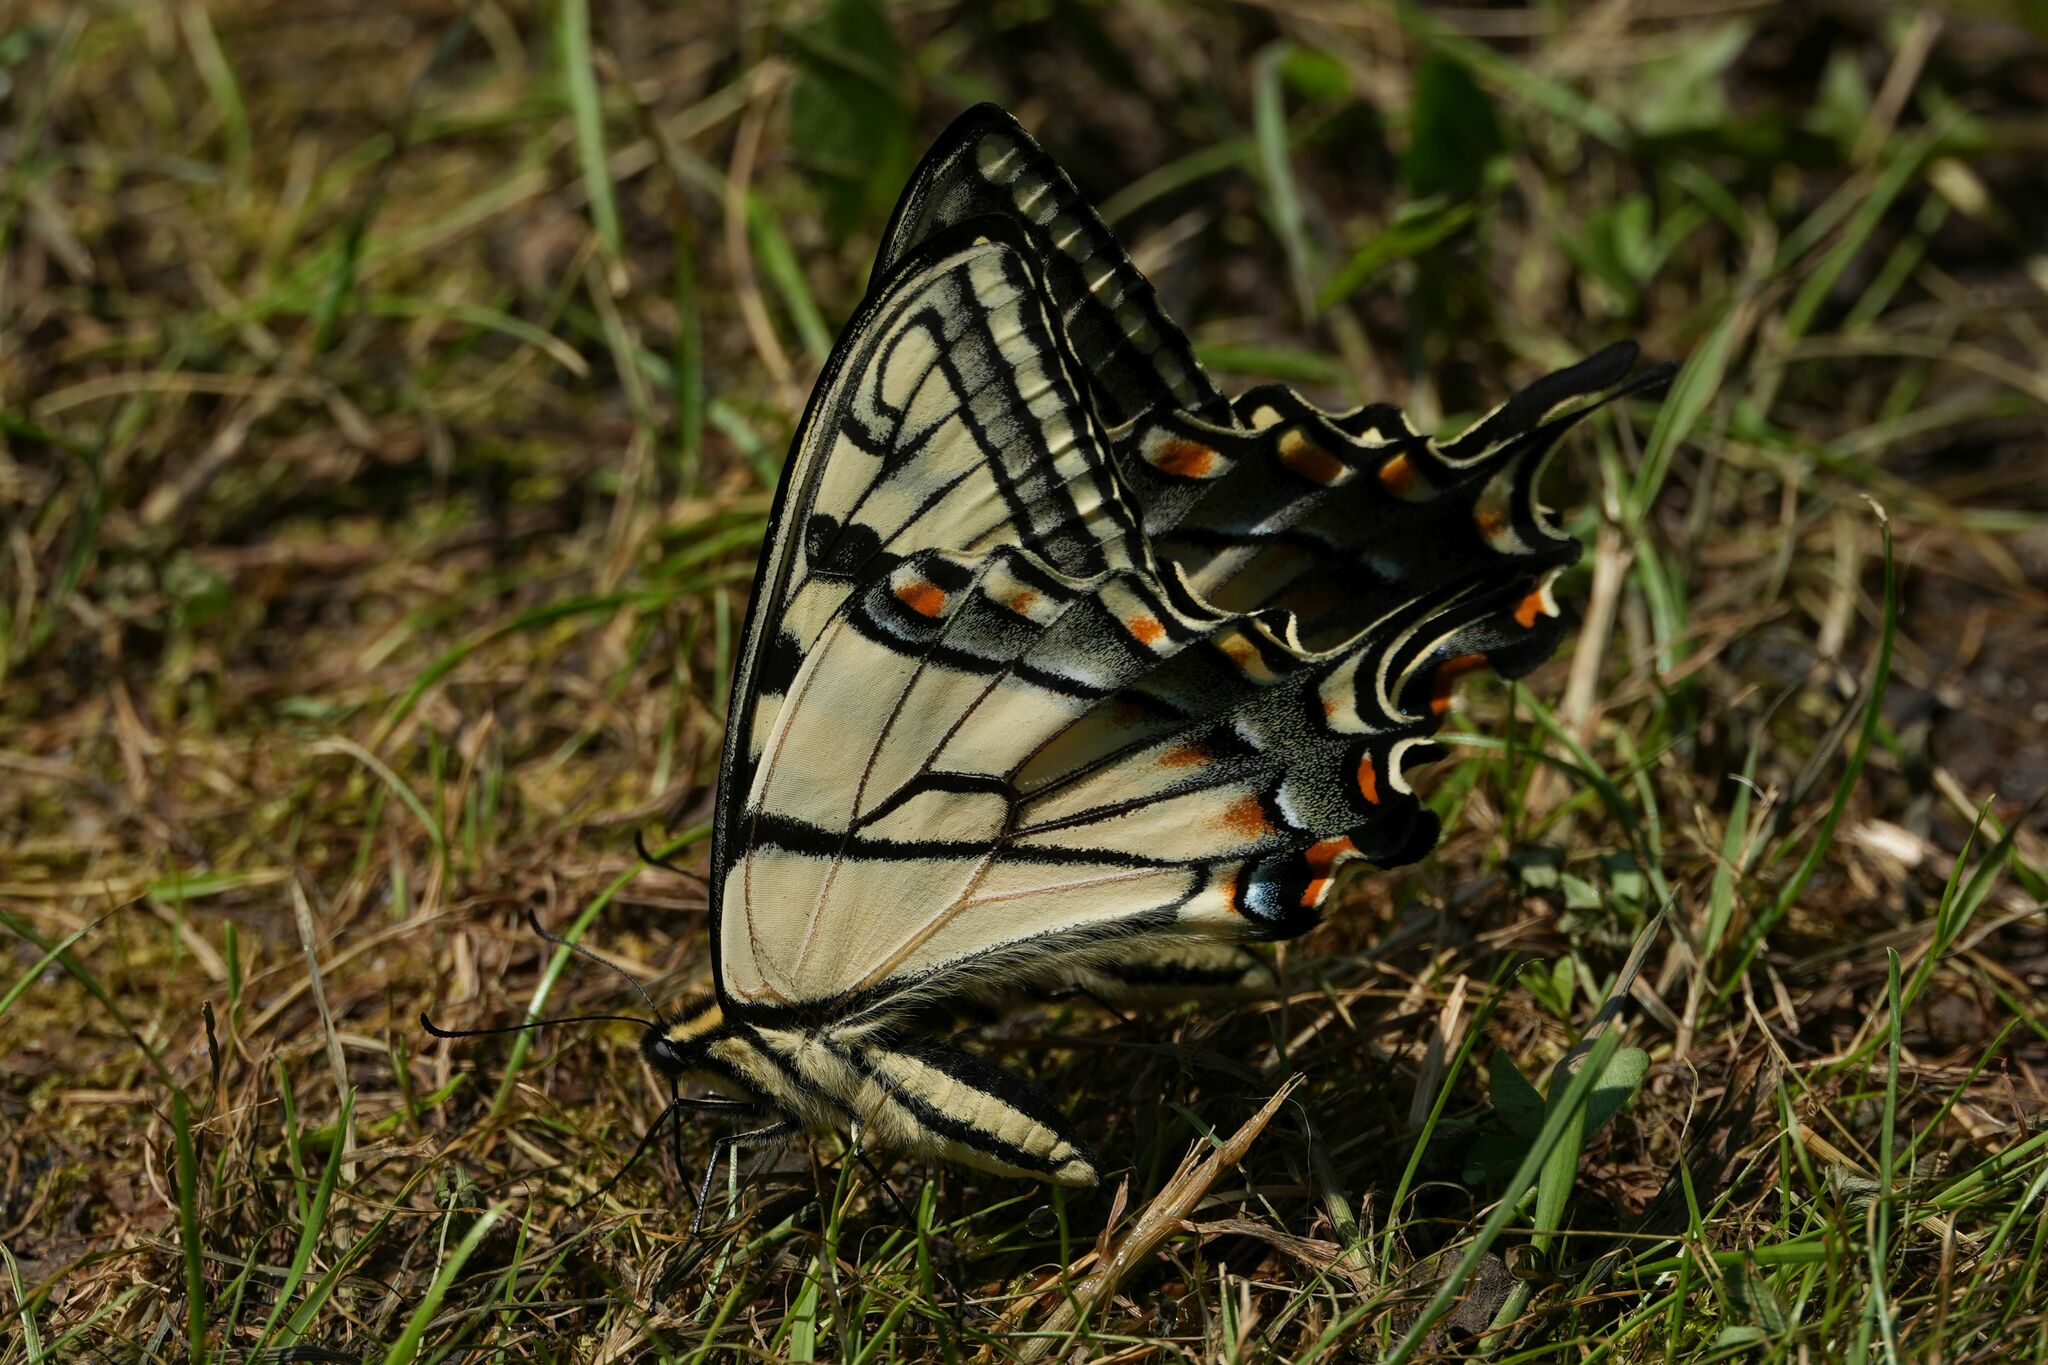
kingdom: Animalia
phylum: Arthropoda
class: Insecta
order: Lepidoptera
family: Papilionidae
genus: Papilio
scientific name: Papilio
